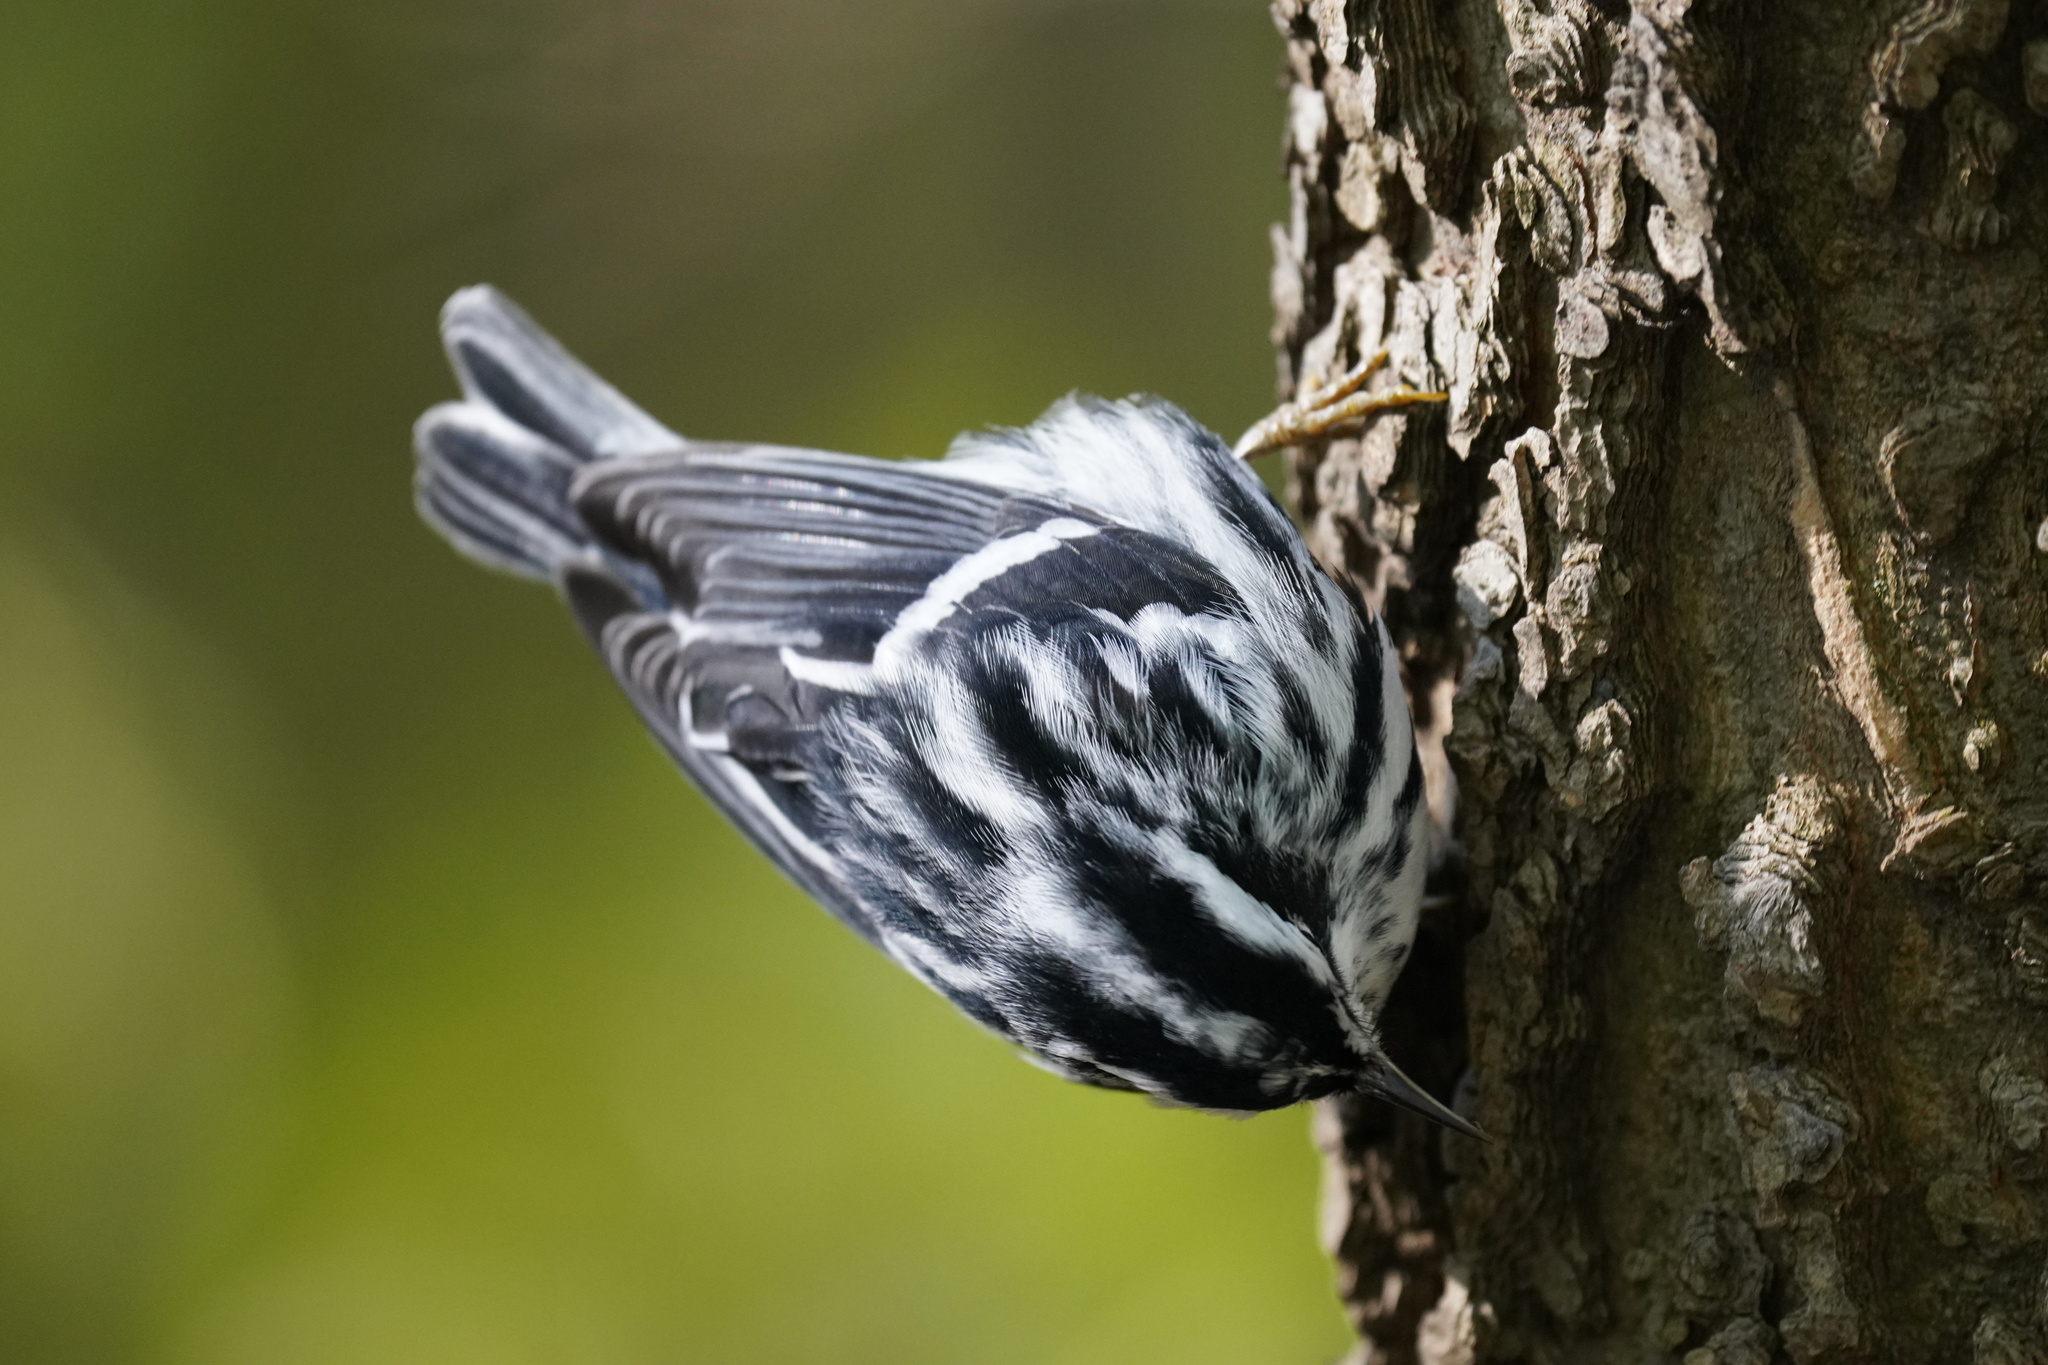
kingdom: Animalia
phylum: Chordata
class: Aves
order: Passeriformes
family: Parulidae
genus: Mniotilta
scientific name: Mniotilta varia
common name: Black-and-white warbler
